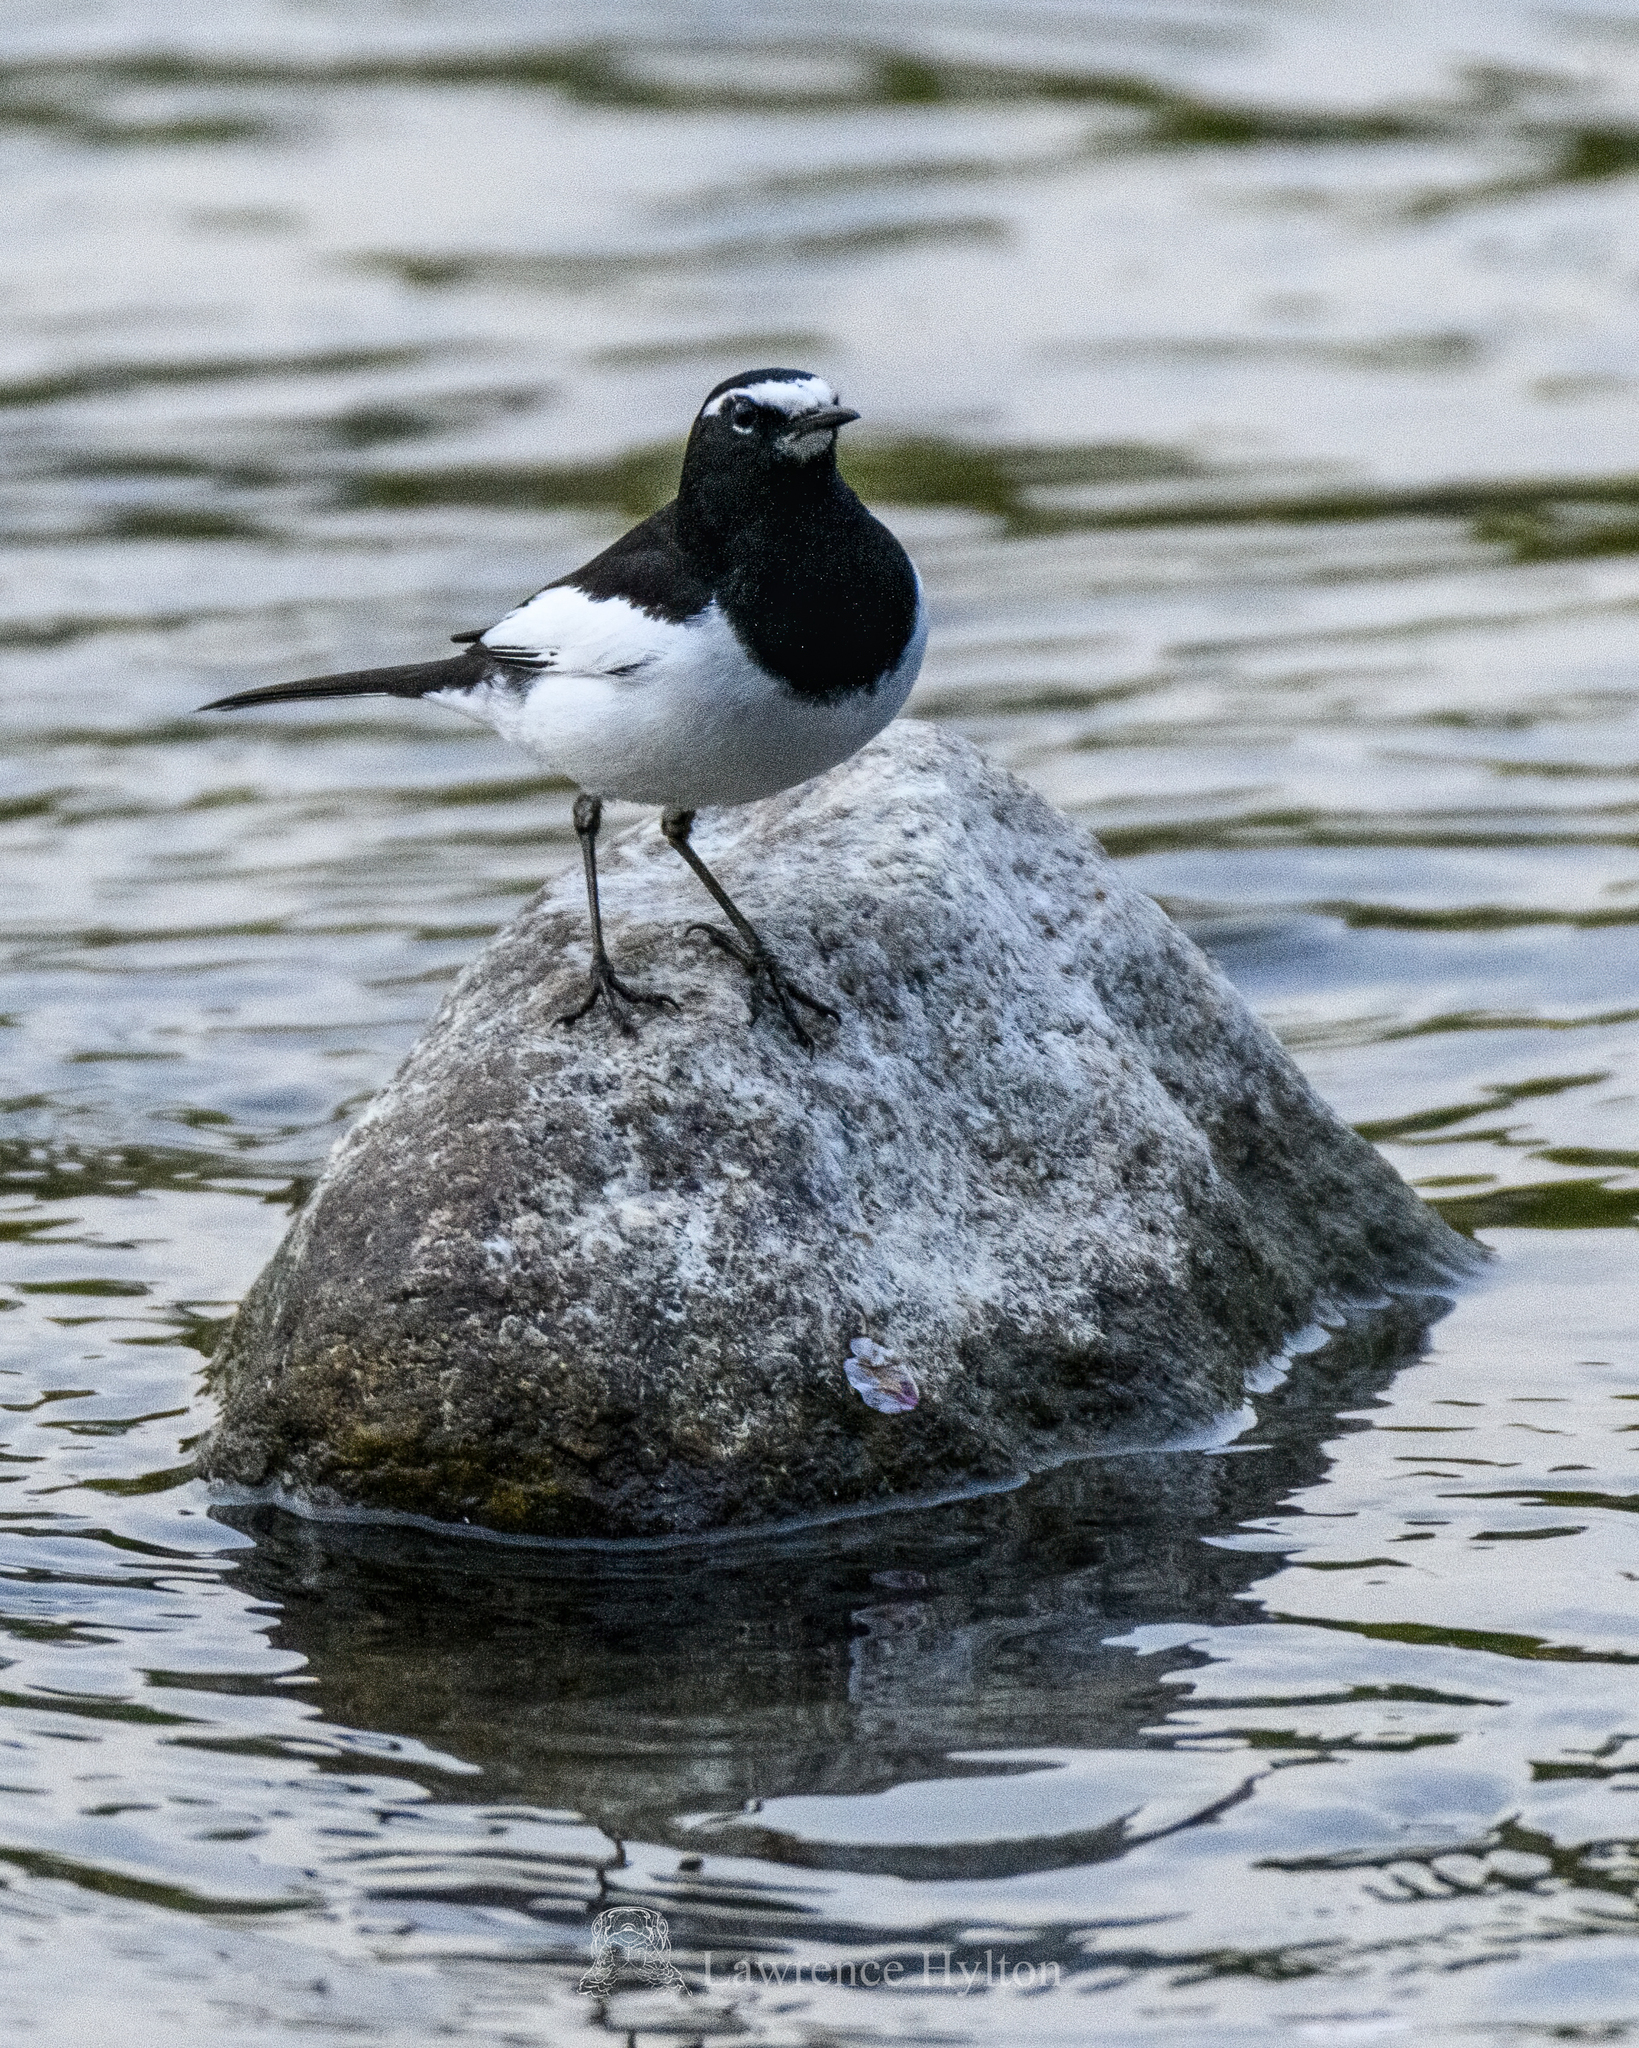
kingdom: Animalia
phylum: Chordata
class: Aves
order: Passeriformes
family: Motacillidae
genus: Motacilla
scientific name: Motacilla grandis
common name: Japanese wagtail
